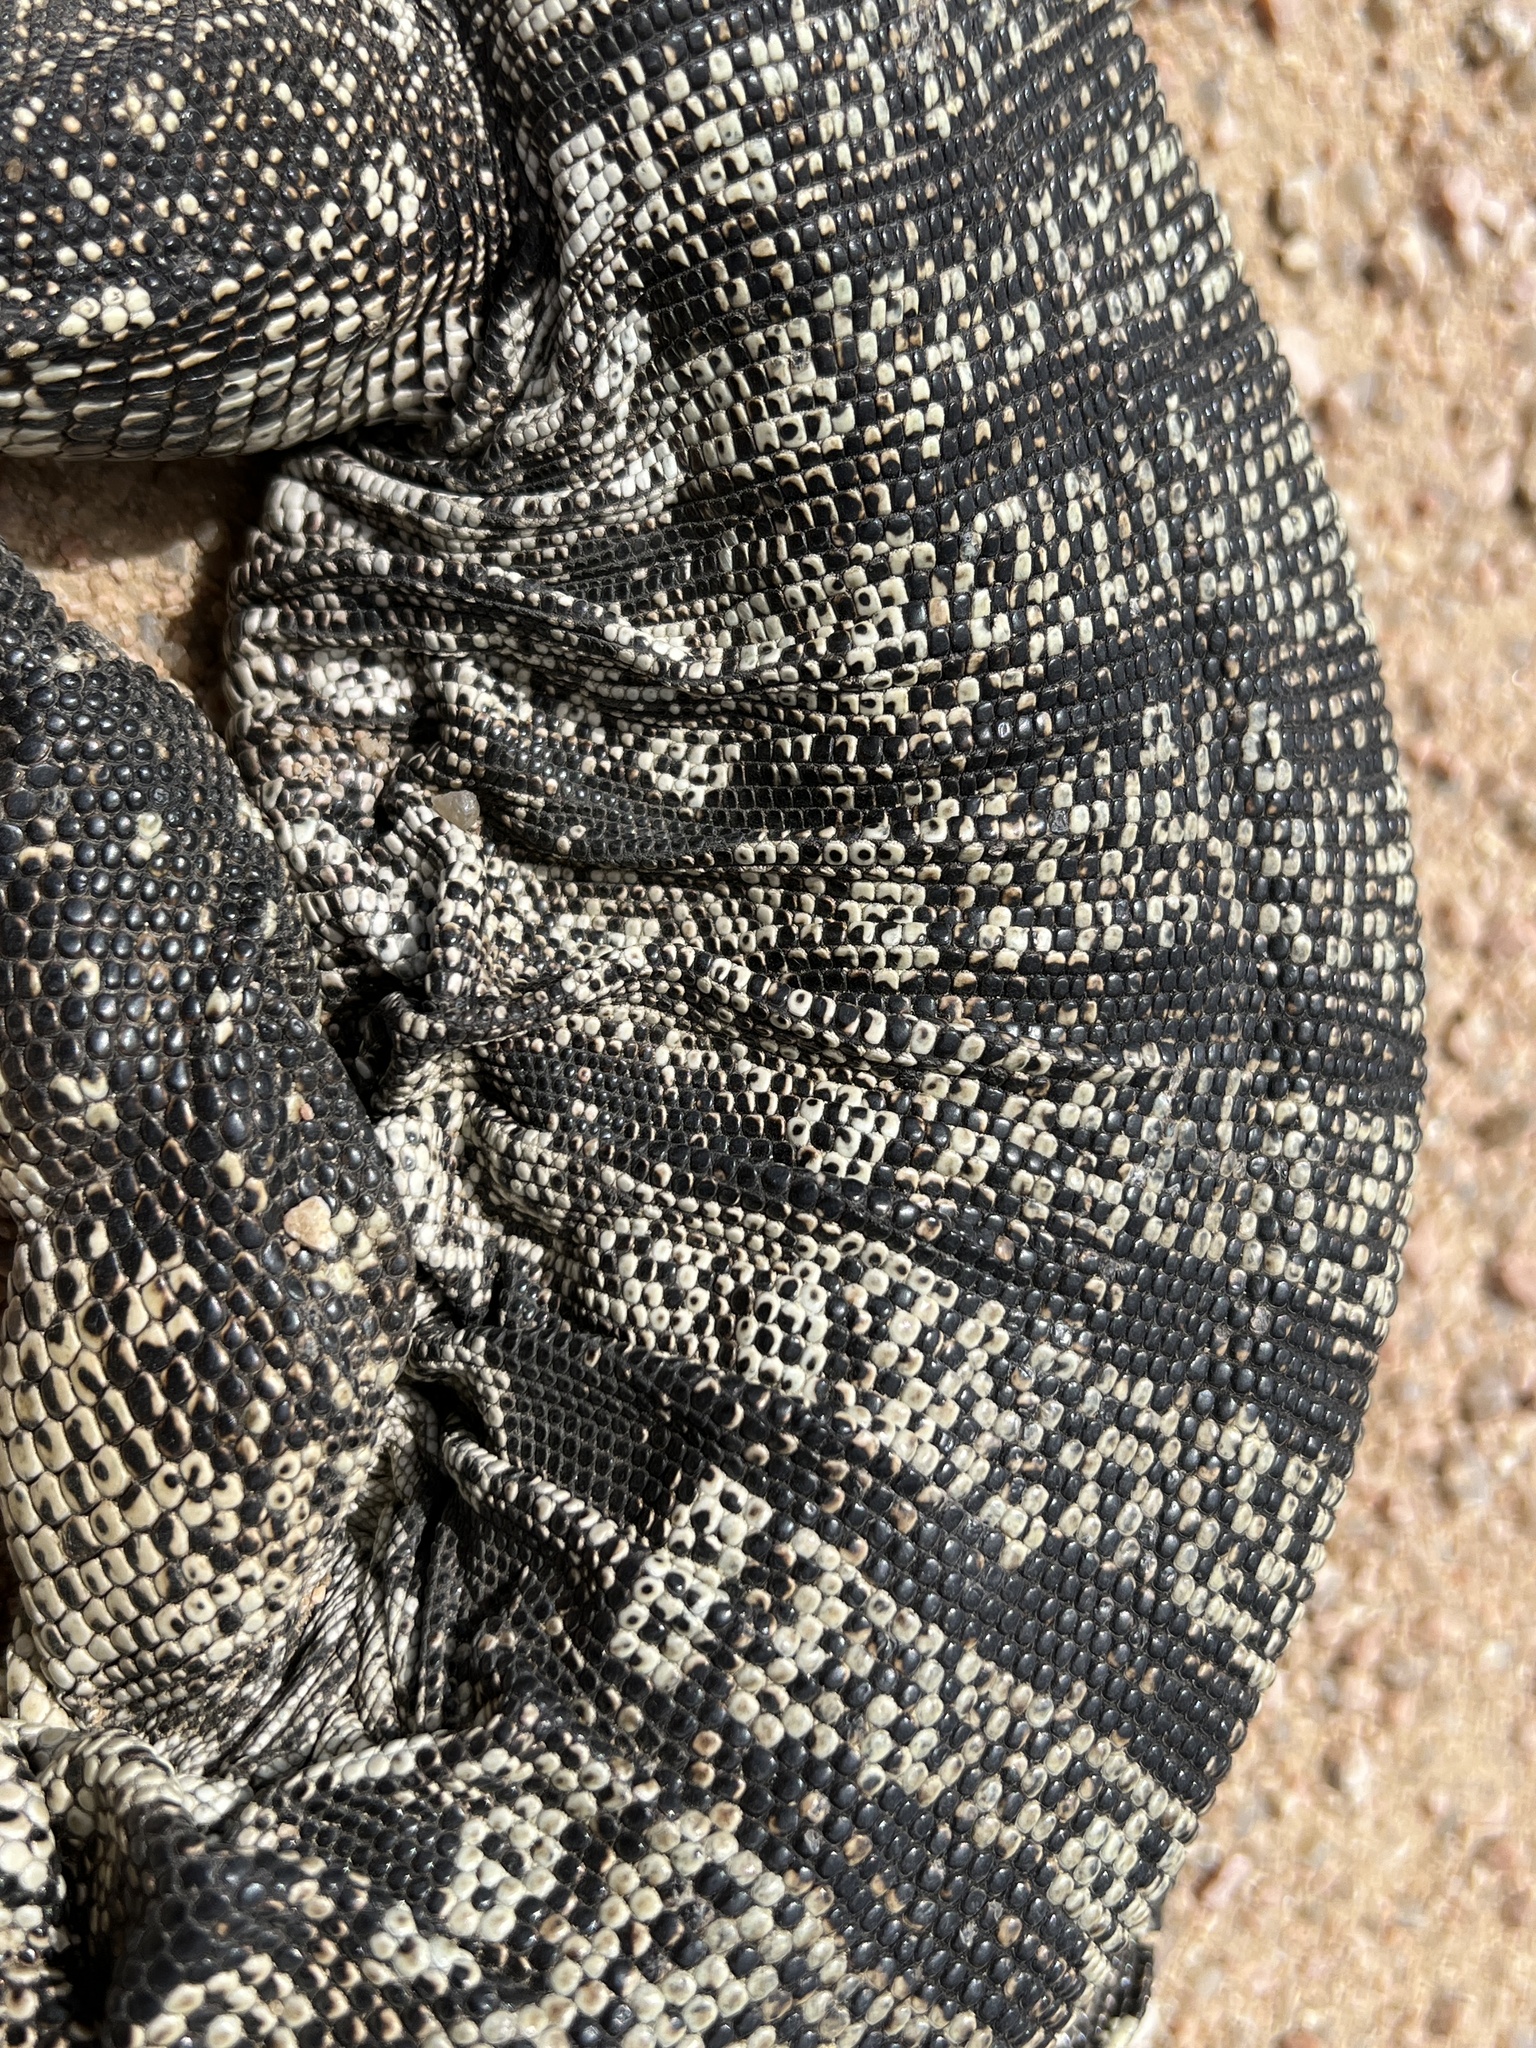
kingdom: Animalia
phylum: Chordata
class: Squamata
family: Teiidae
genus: Salvator
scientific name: Salvator merianae
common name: Argentine black and white tegu
